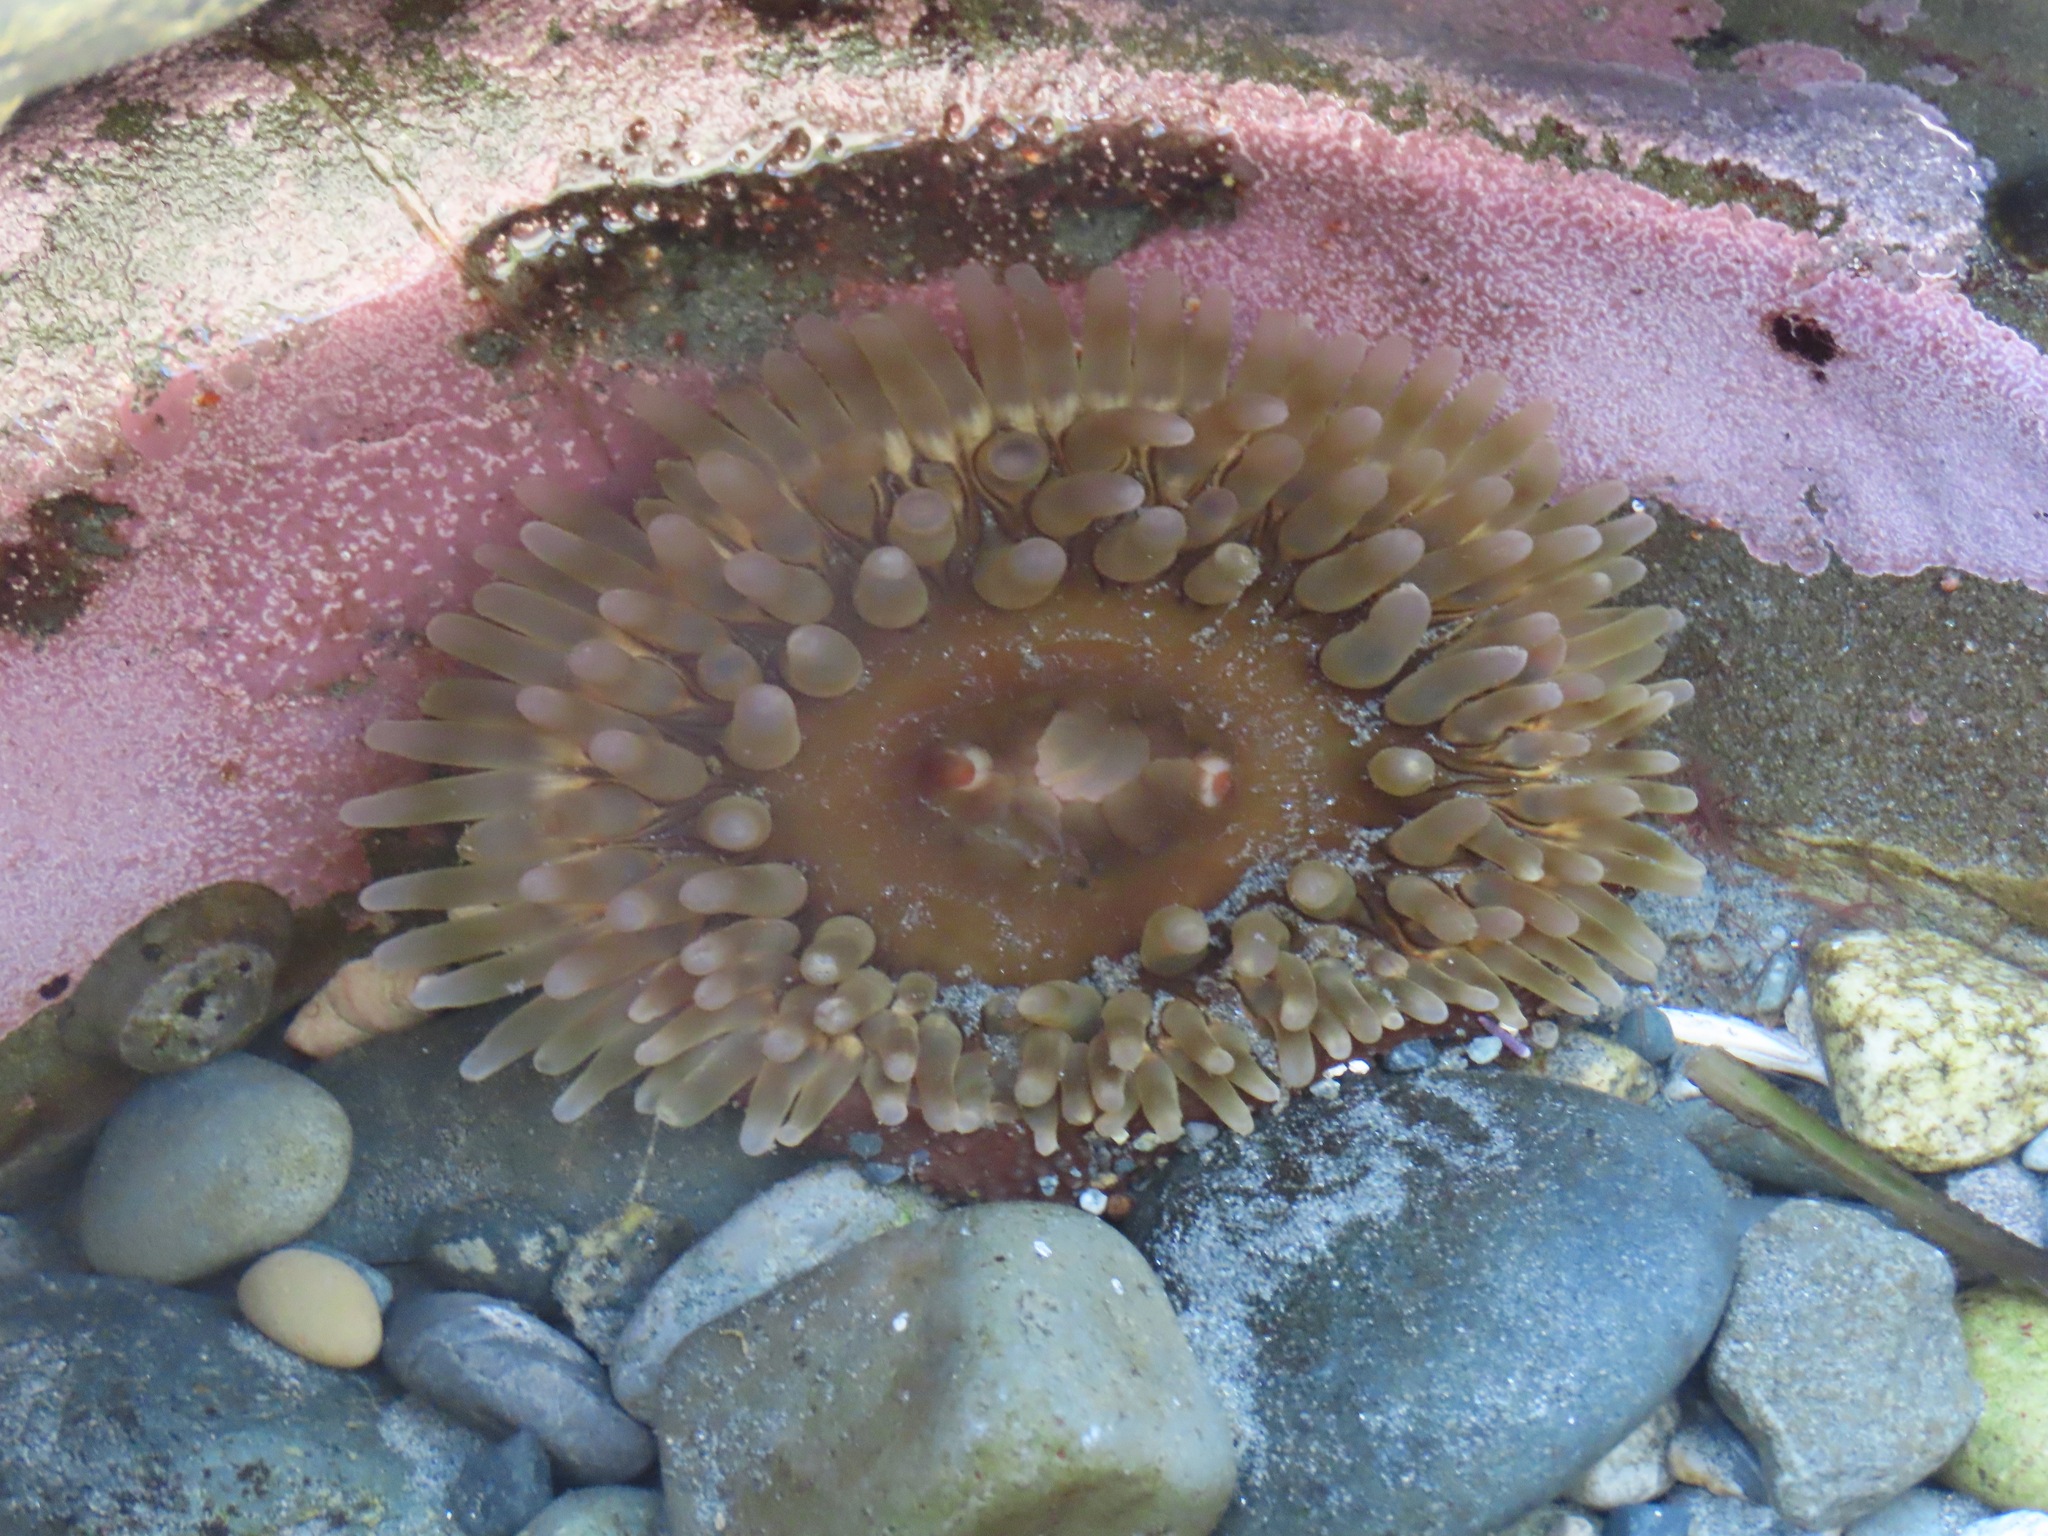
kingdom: Animalia
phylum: Cnidaria
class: Anthozoa
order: Actiniaria
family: Actiniidae
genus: Urticina
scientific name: Urticina clandestina
